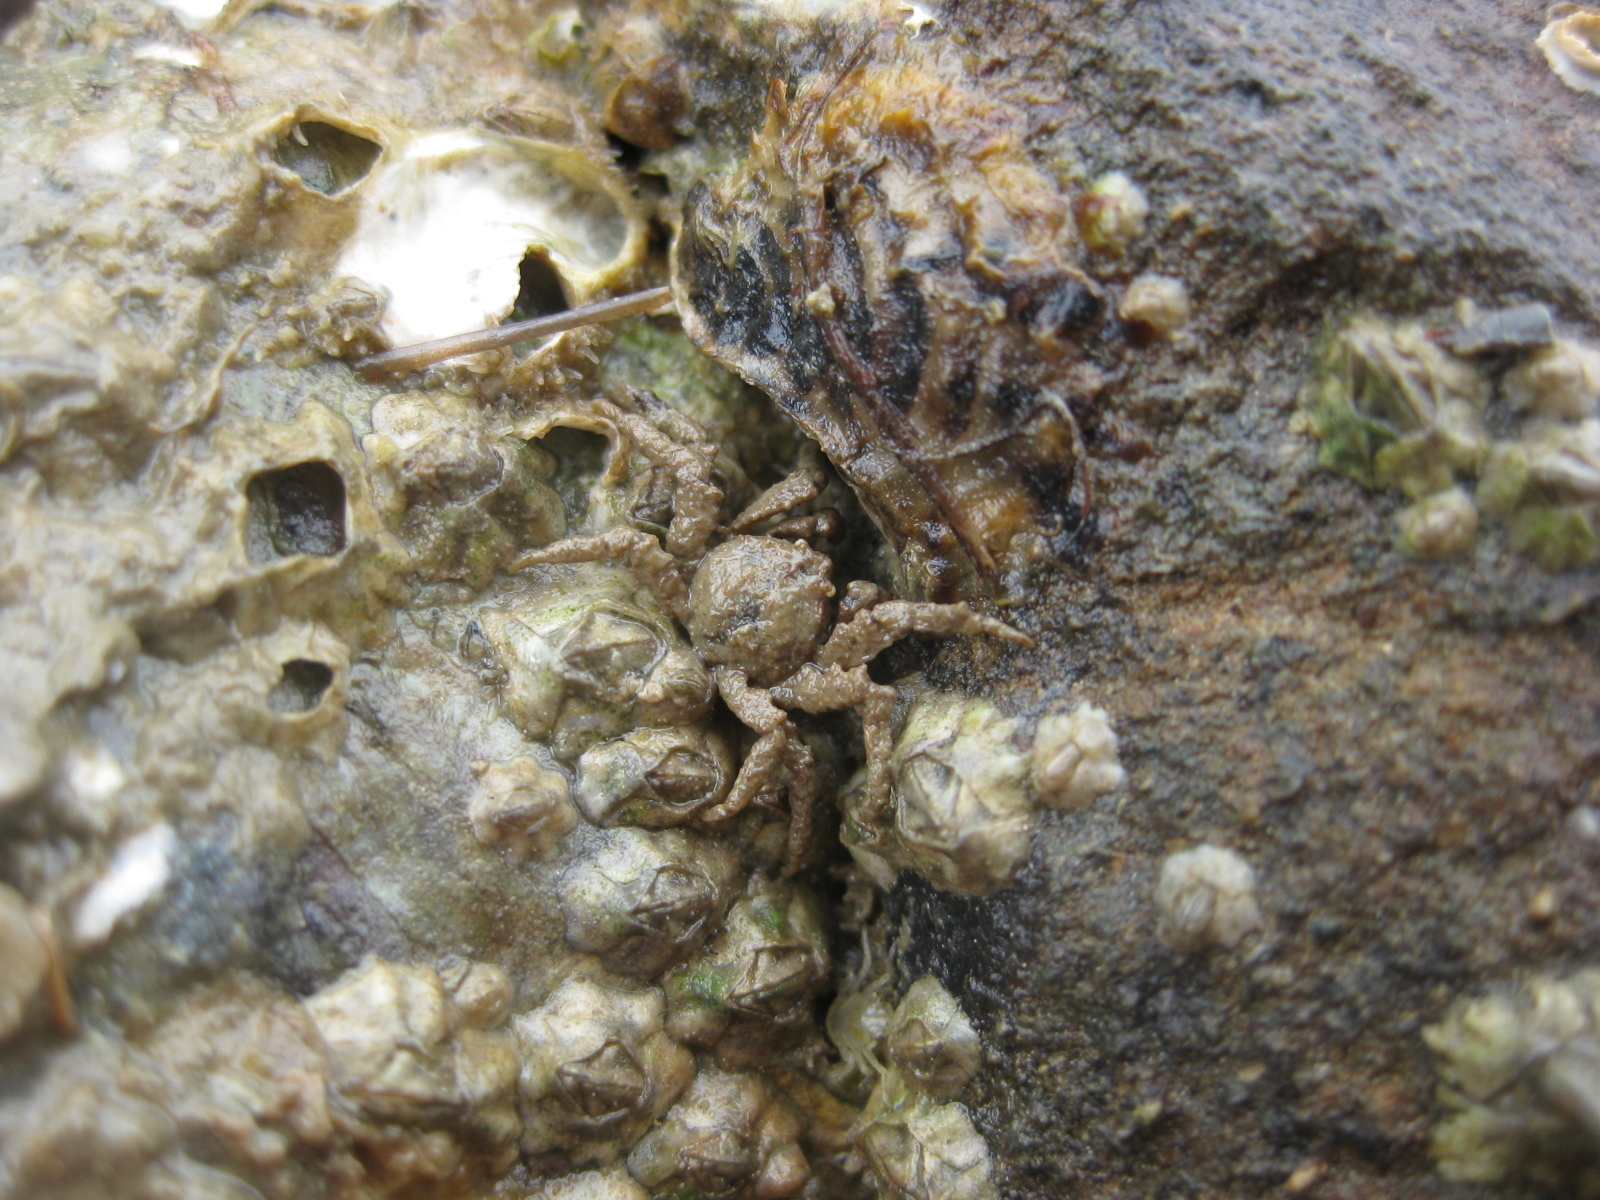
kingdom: Animalia
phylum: Arthropoda
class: Malacostraca
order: Decapoda
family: Hymenosomatidae
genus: Neohymenicus
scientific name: Neohymenicus pubescens
